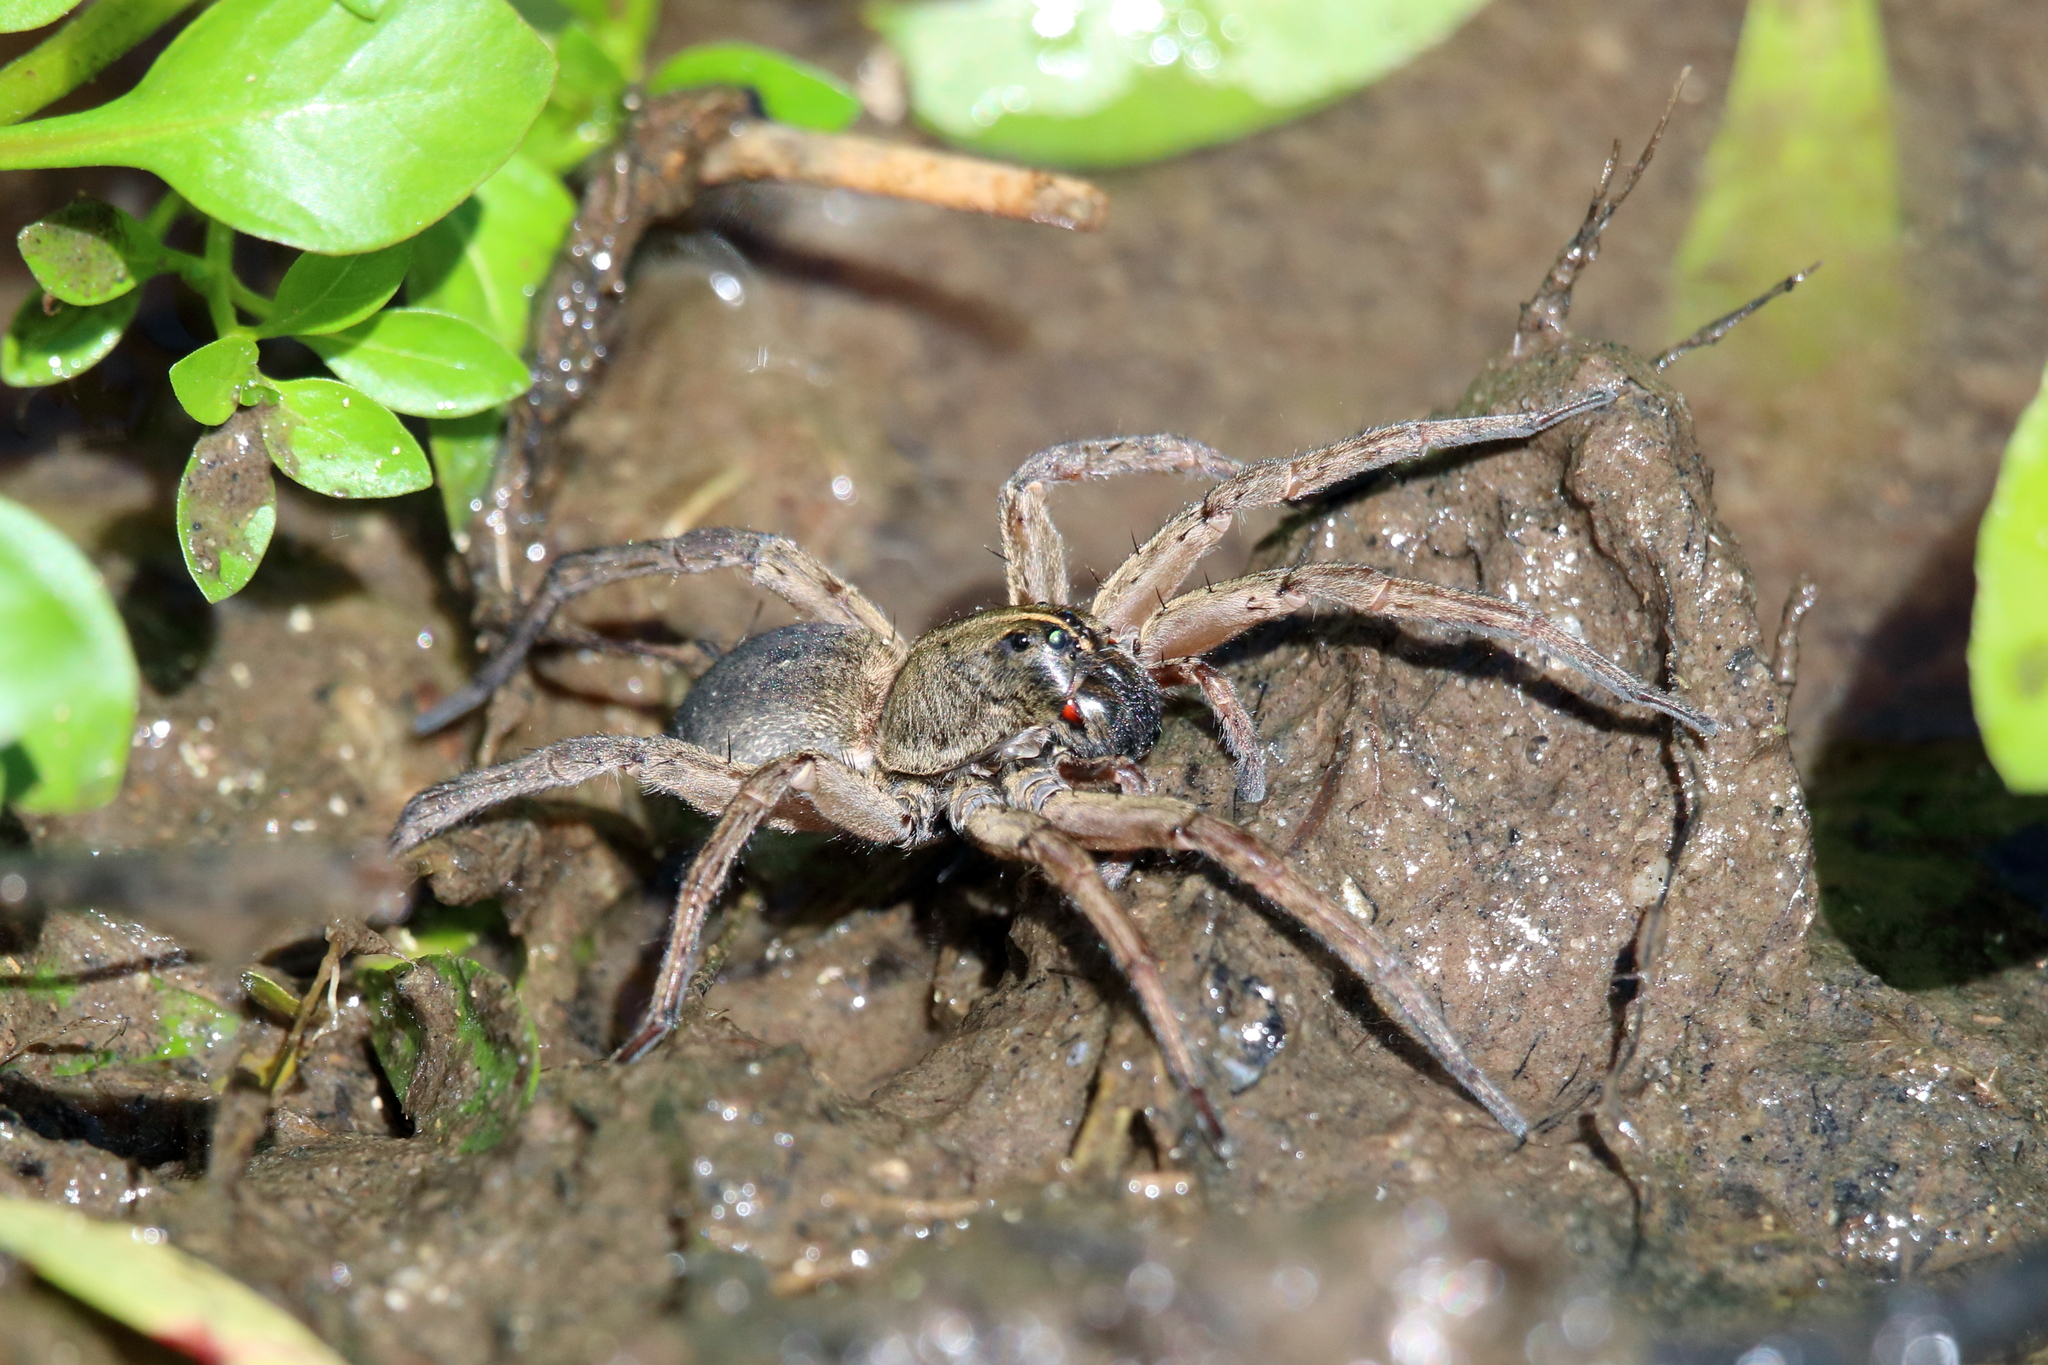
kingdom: Animalia
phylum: Arthropoda
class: Arachnida
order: Araneae
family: Lycosidae
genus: Tigrosa
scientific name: Tigrosa helluo
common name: Wetland giant wolf spider
